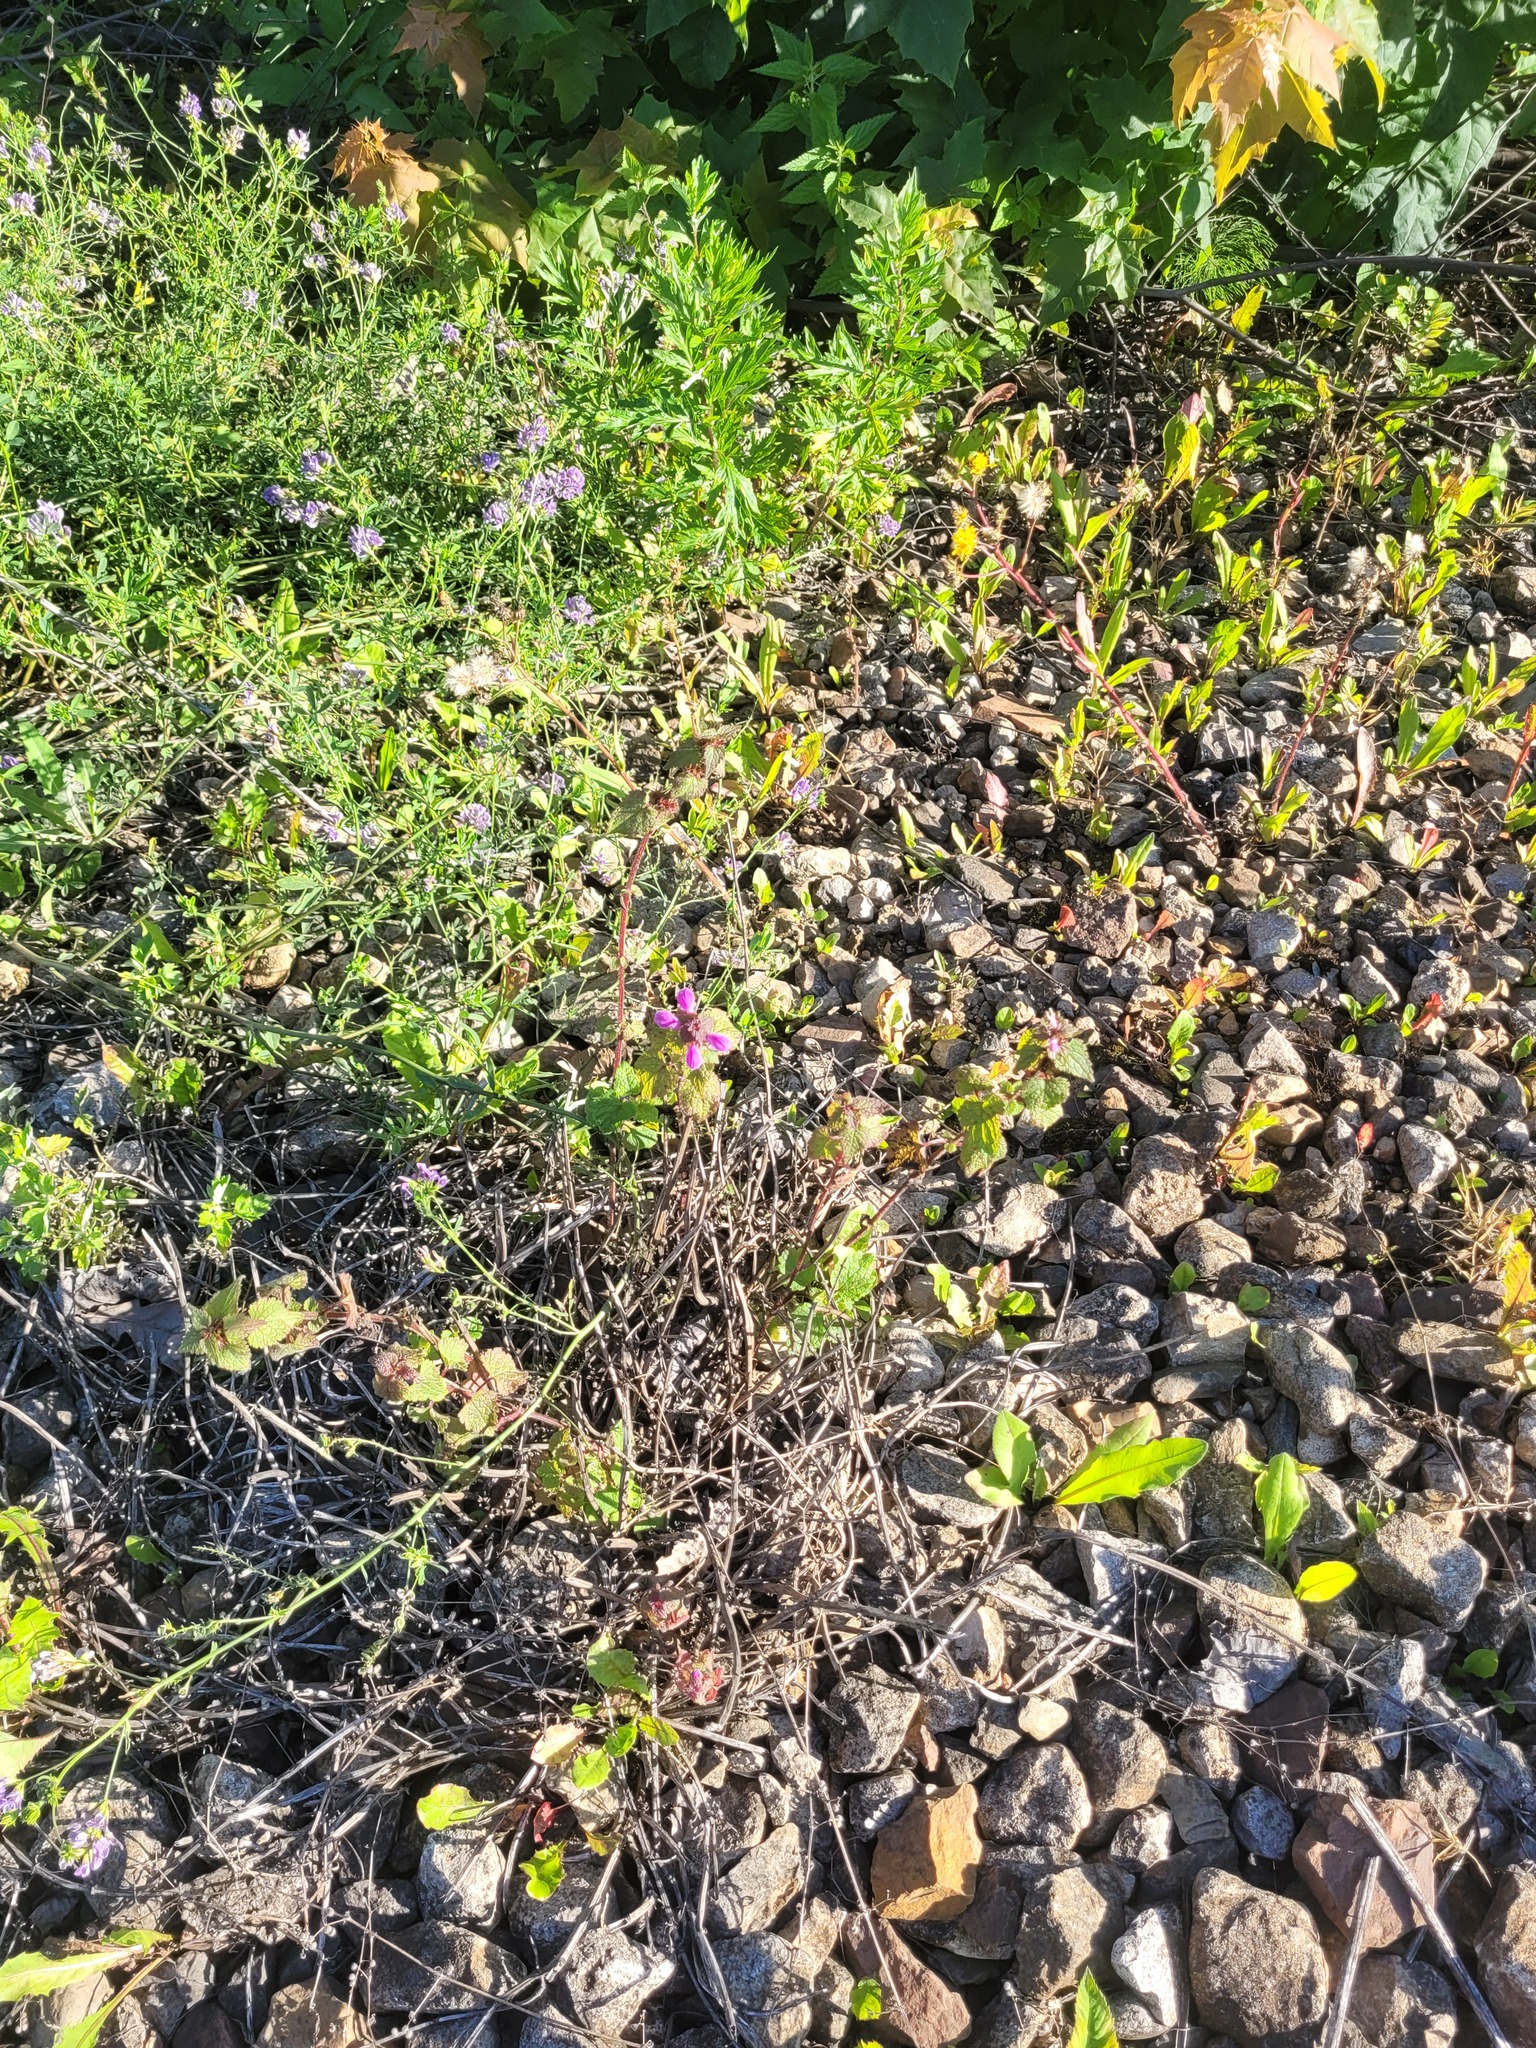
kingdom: Plantae
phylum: Tracheophyta
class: Magnoliopsida
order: Lamiales
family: Lamiaceae
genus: Lamium
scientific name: Lamium maculatum
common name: Spotted dead-nettle
